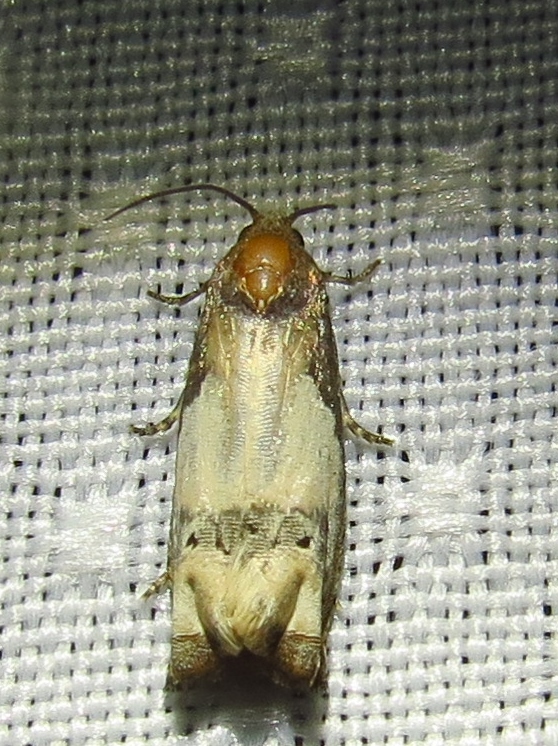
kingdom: Animalia
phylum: Arthropoda
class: Insecta
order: Lepidoptera
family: Tortricidae
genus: Epiblema
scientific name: Epiblema scudderiana
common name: Goldenrod gall moth
